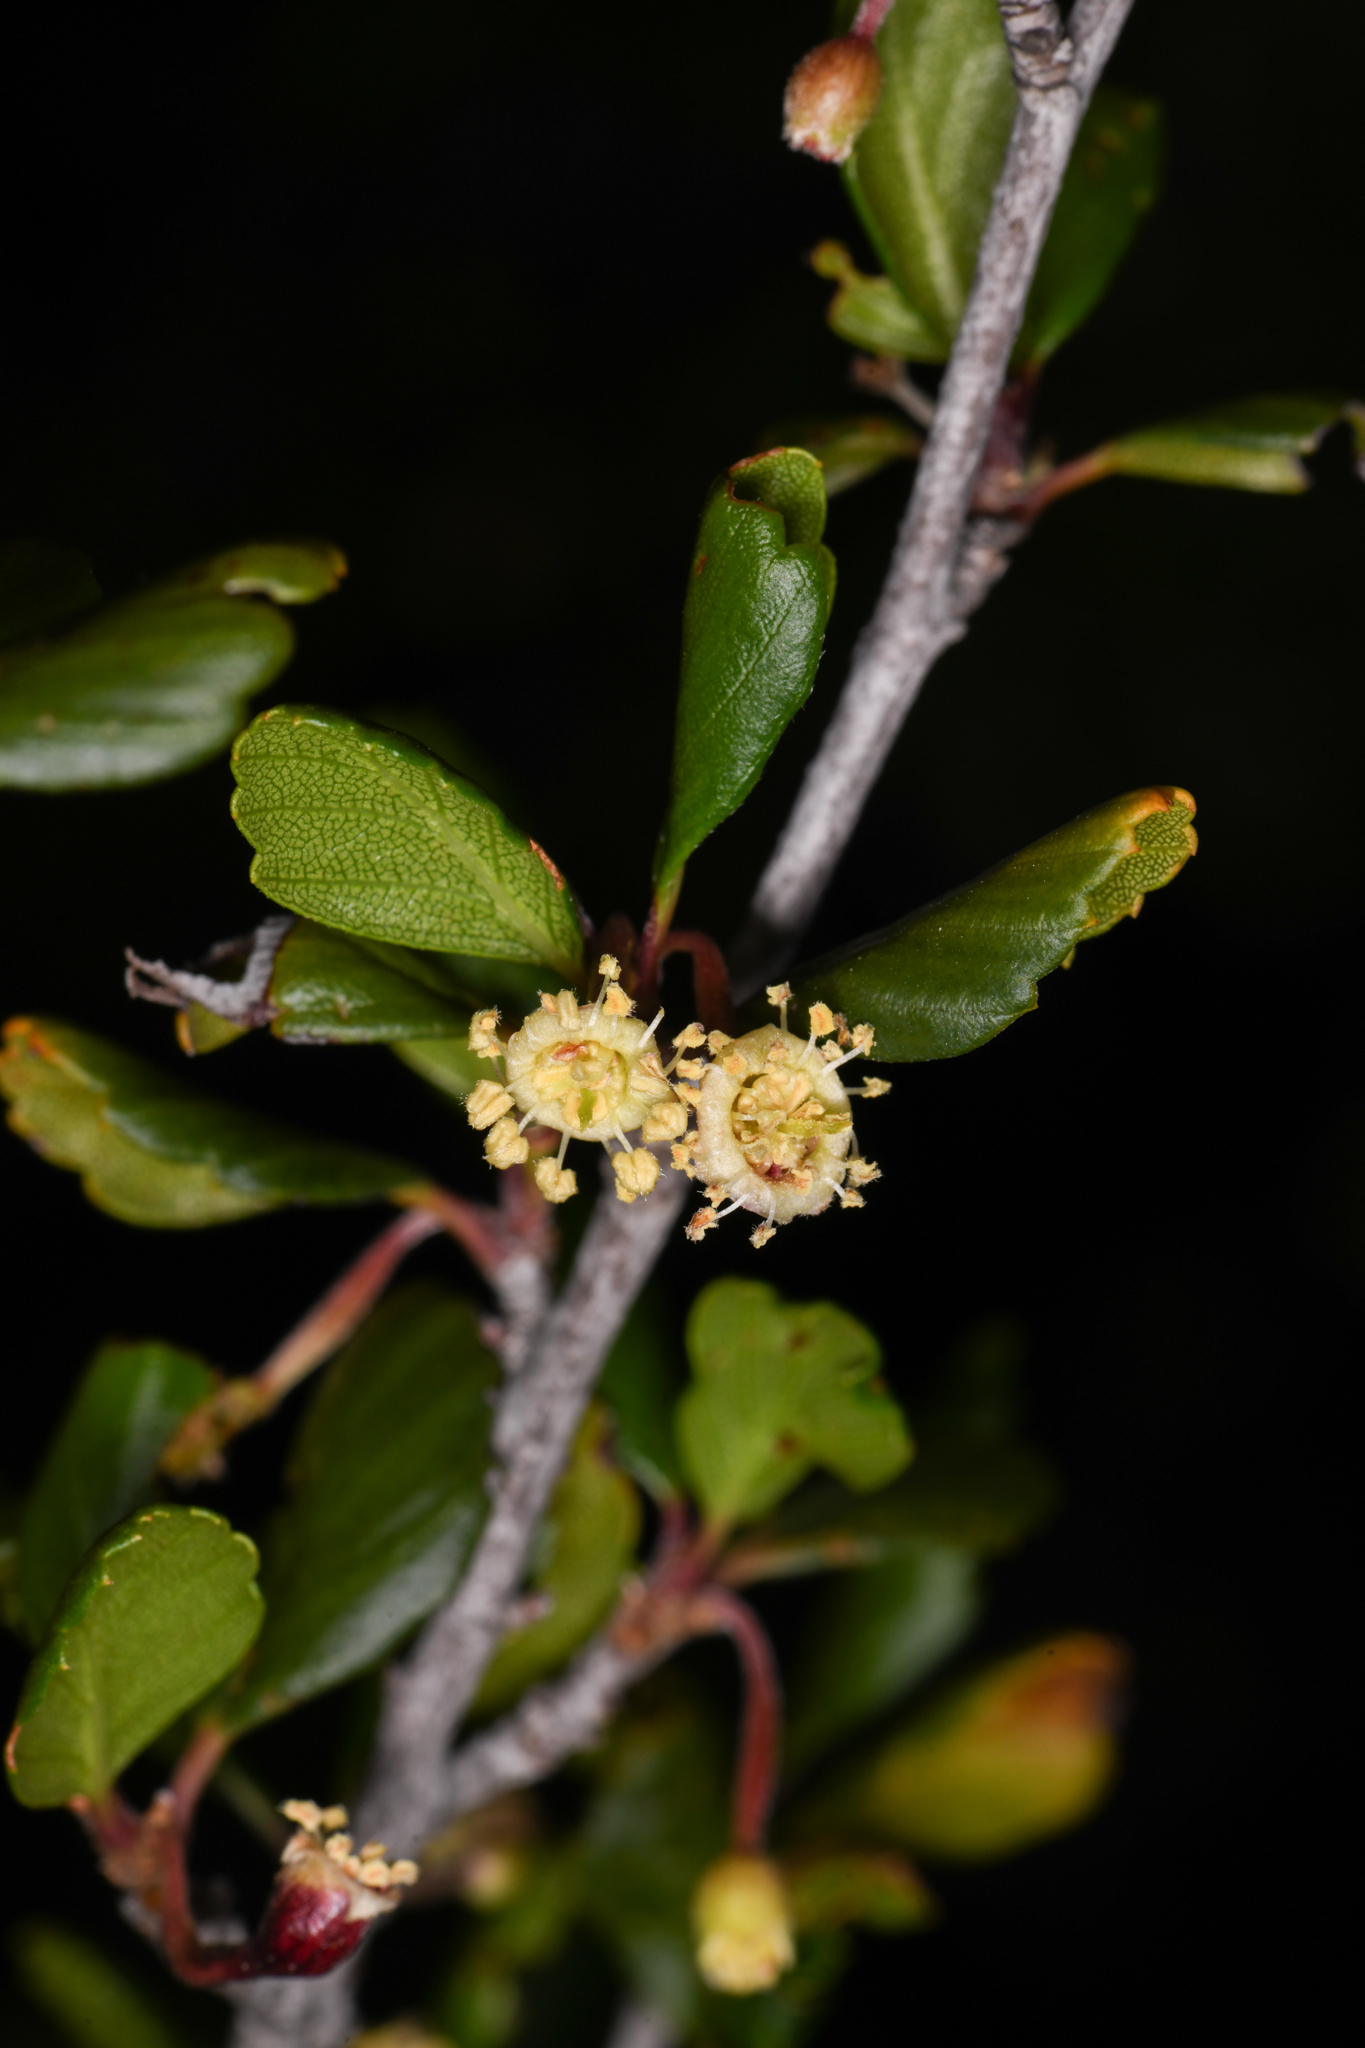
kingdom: Plantae
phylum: Tracheophyta
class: Magnoliopsida
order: Rosales
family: Rosaceae
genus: Cercocarpus
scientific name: Cercocarpus montanus
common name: Alder-leaf cercocarpus
